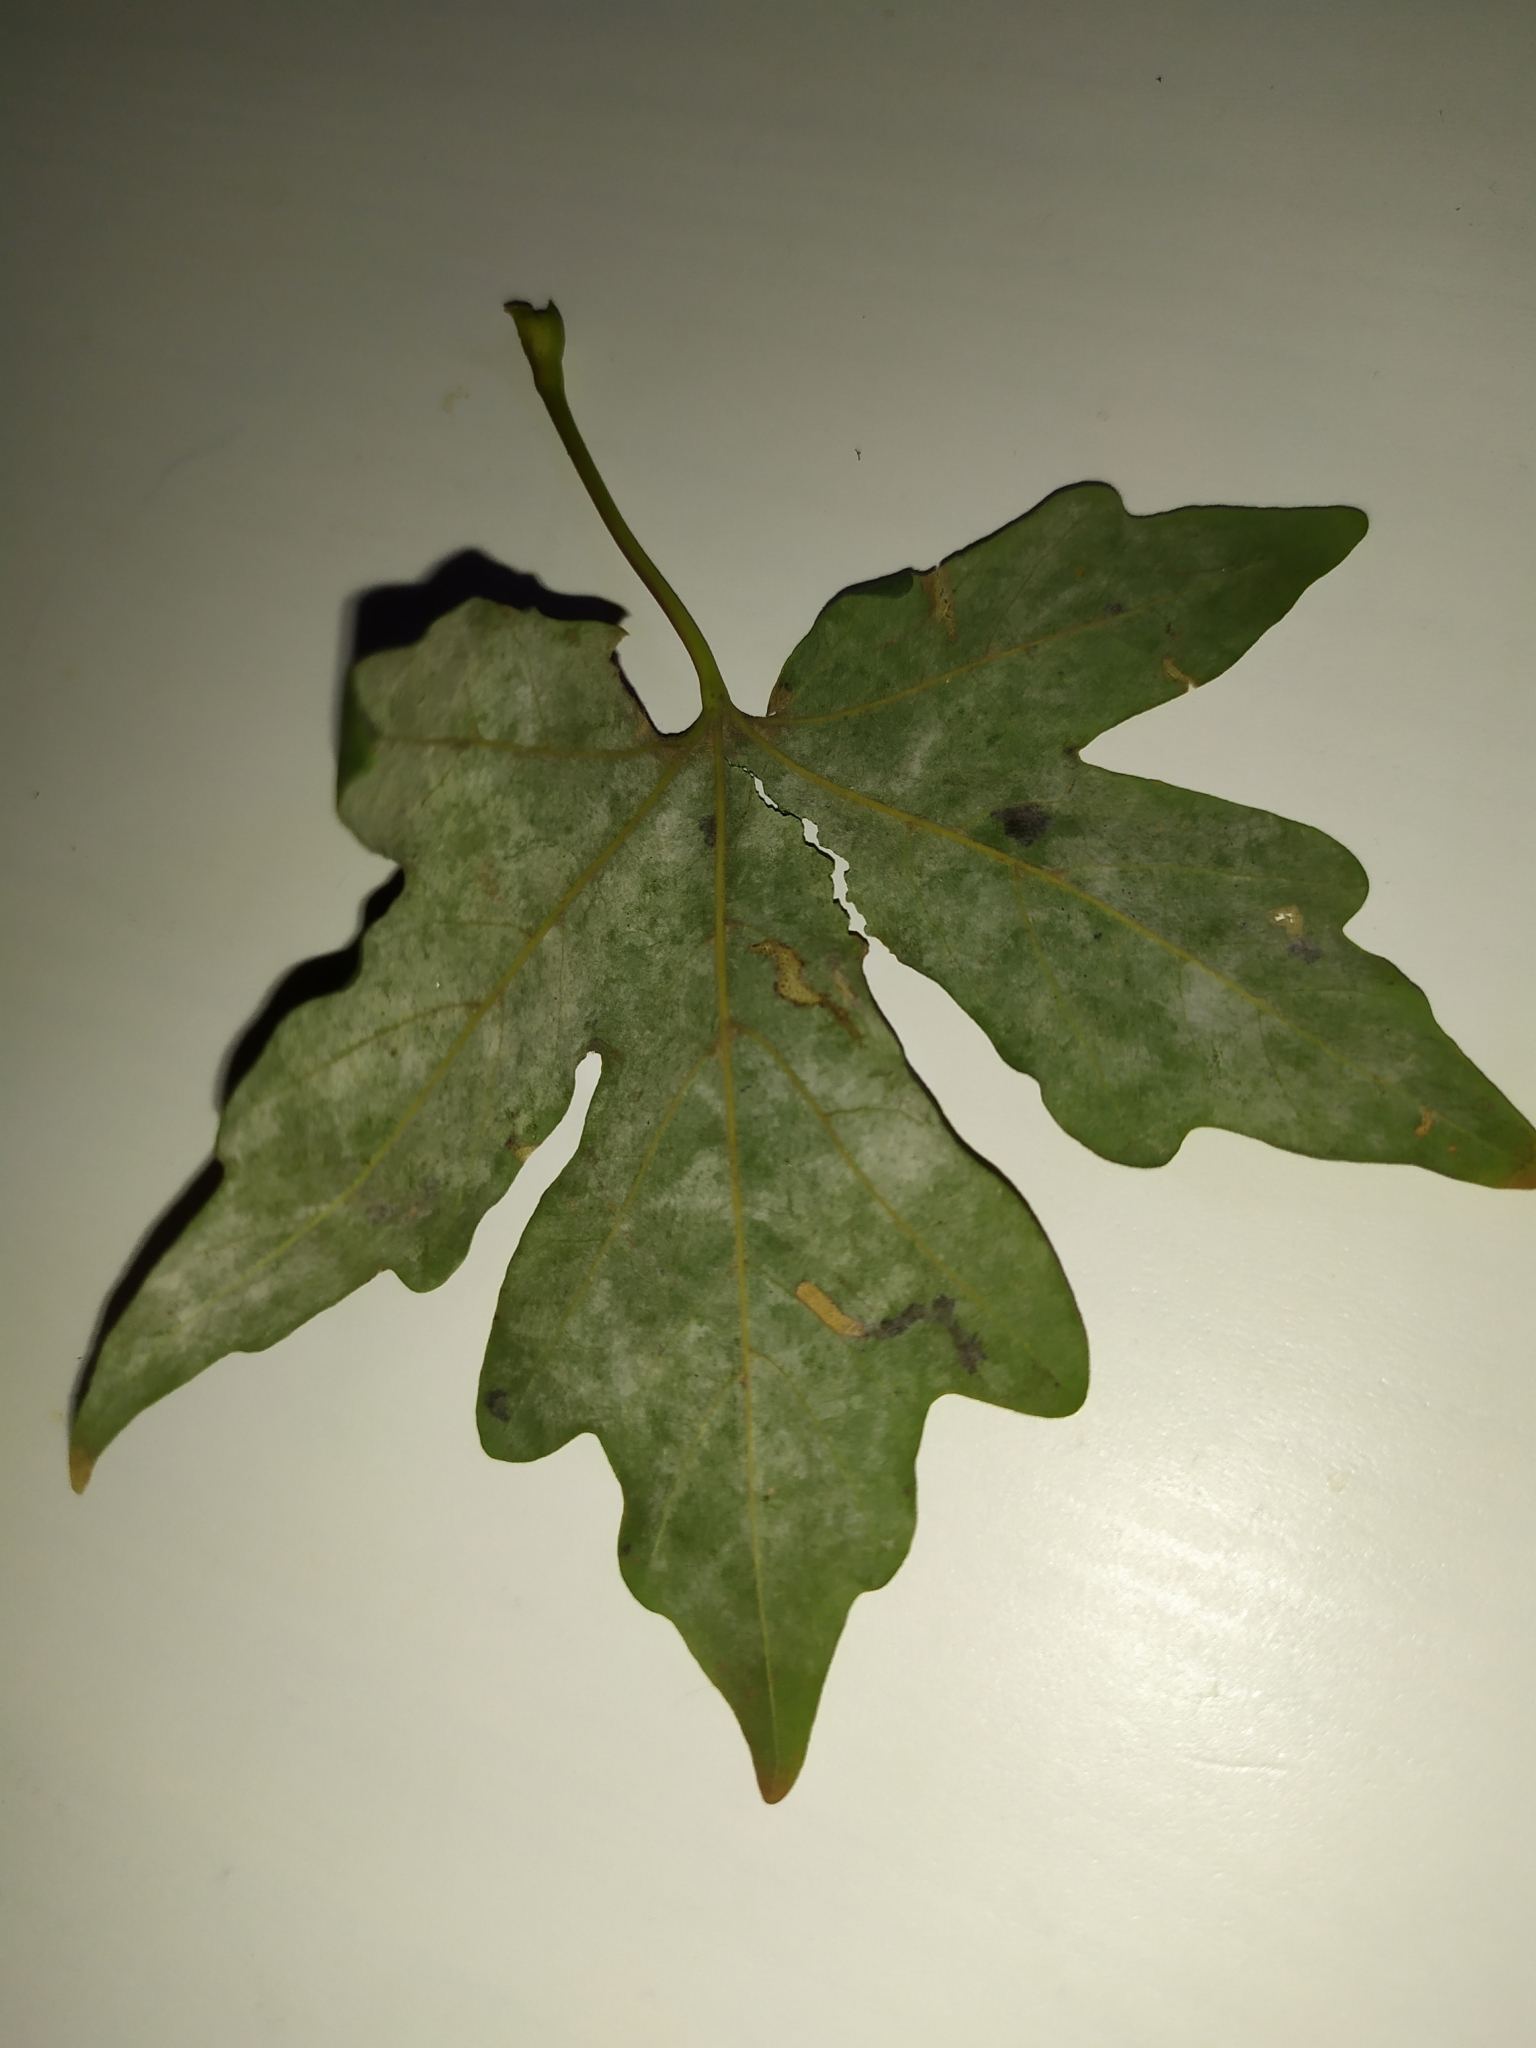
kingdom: Fungi
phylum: Ascomycota
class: Leotiomycetes
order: Helotiales
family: Erysiphaceae
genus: Sawadaea
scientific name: Sawadaea bicornis
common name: Maple mildew
